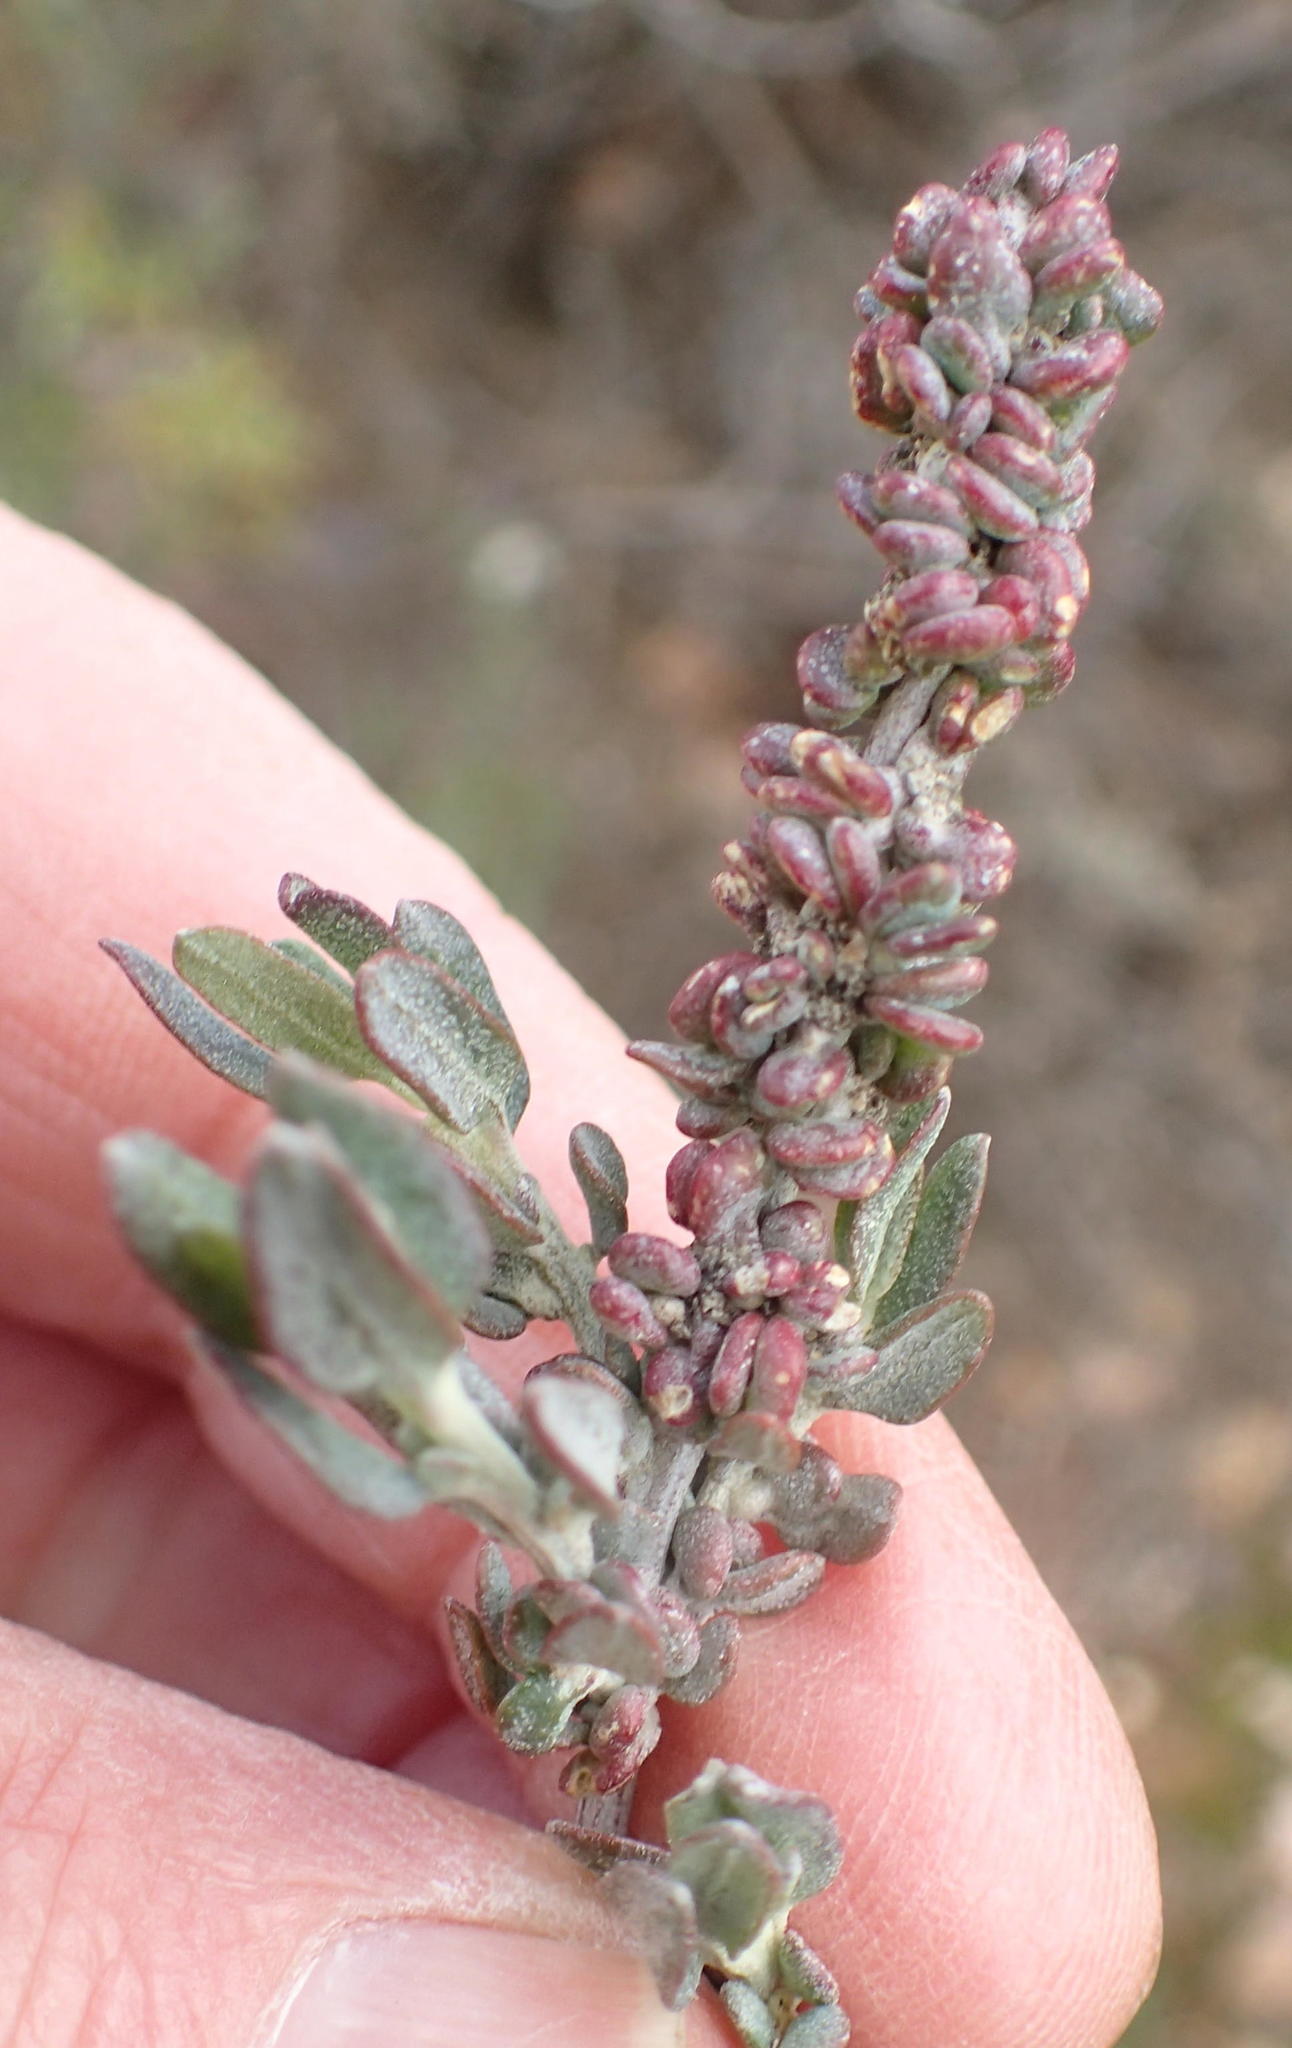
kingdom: Plantae
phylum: Tracheophyta
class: Magnoliopsida
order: Caryophyllales
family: Amaranthaceae
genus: Exomis
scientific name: Exomis albicans
